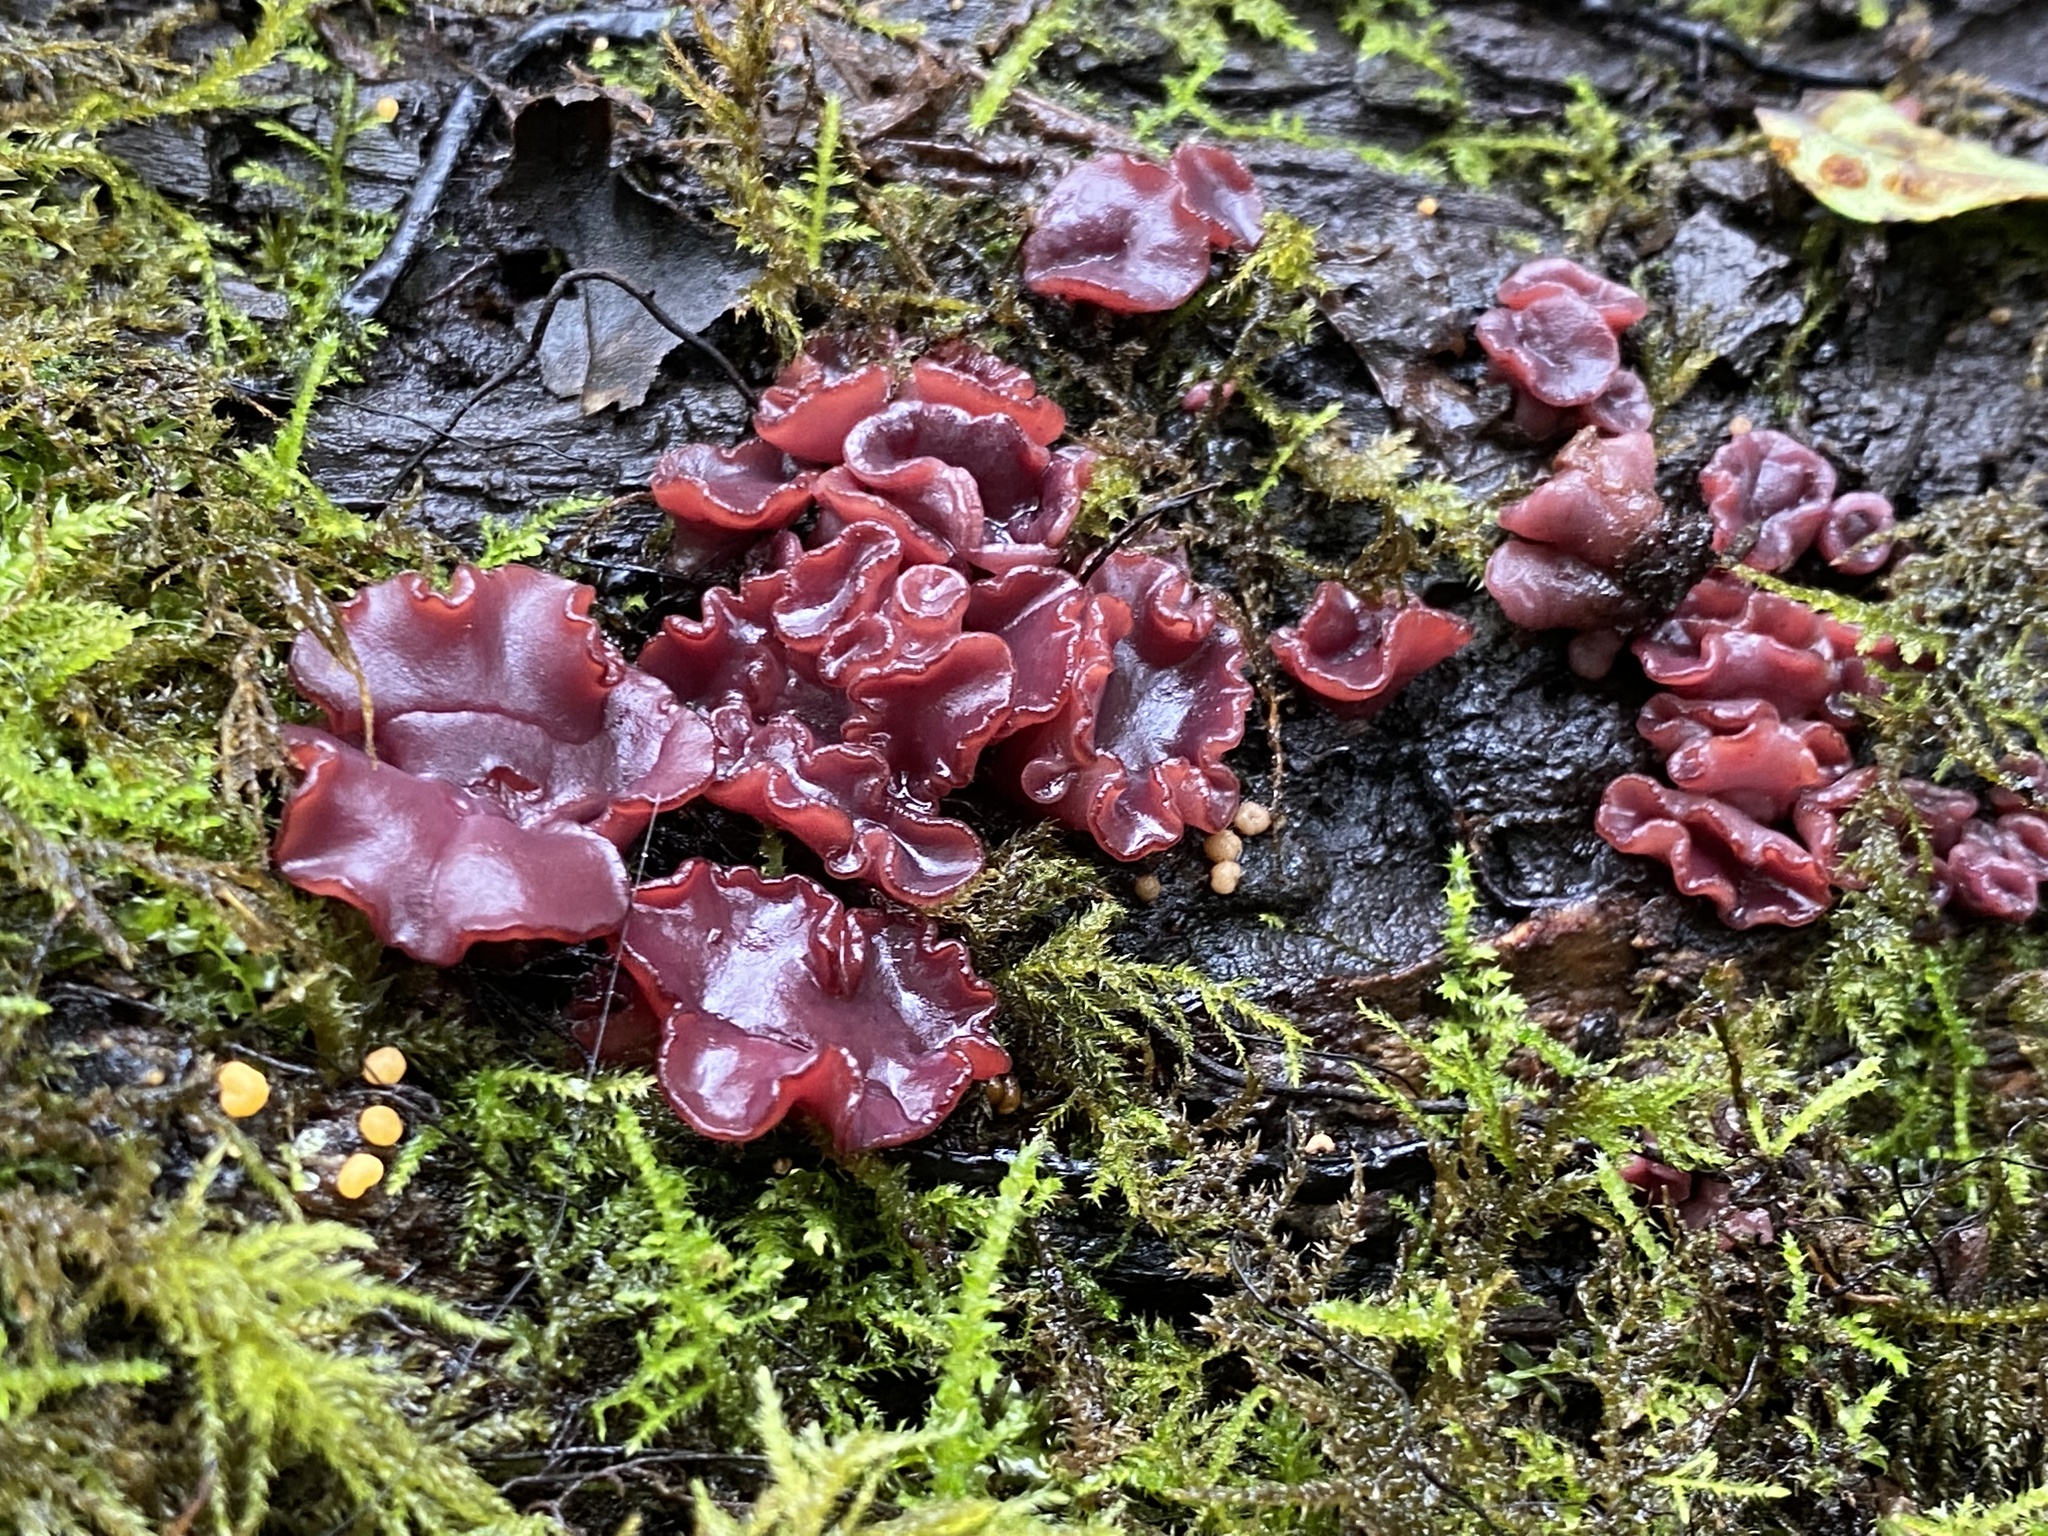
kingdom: Fungi
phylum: Ascomycota
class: Leotiomycetes
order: Helotiales
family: Gelatinodiscaceae
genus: Ascocoryne
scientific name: Ascocoryne sarcoides
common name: Purple jellydisc
